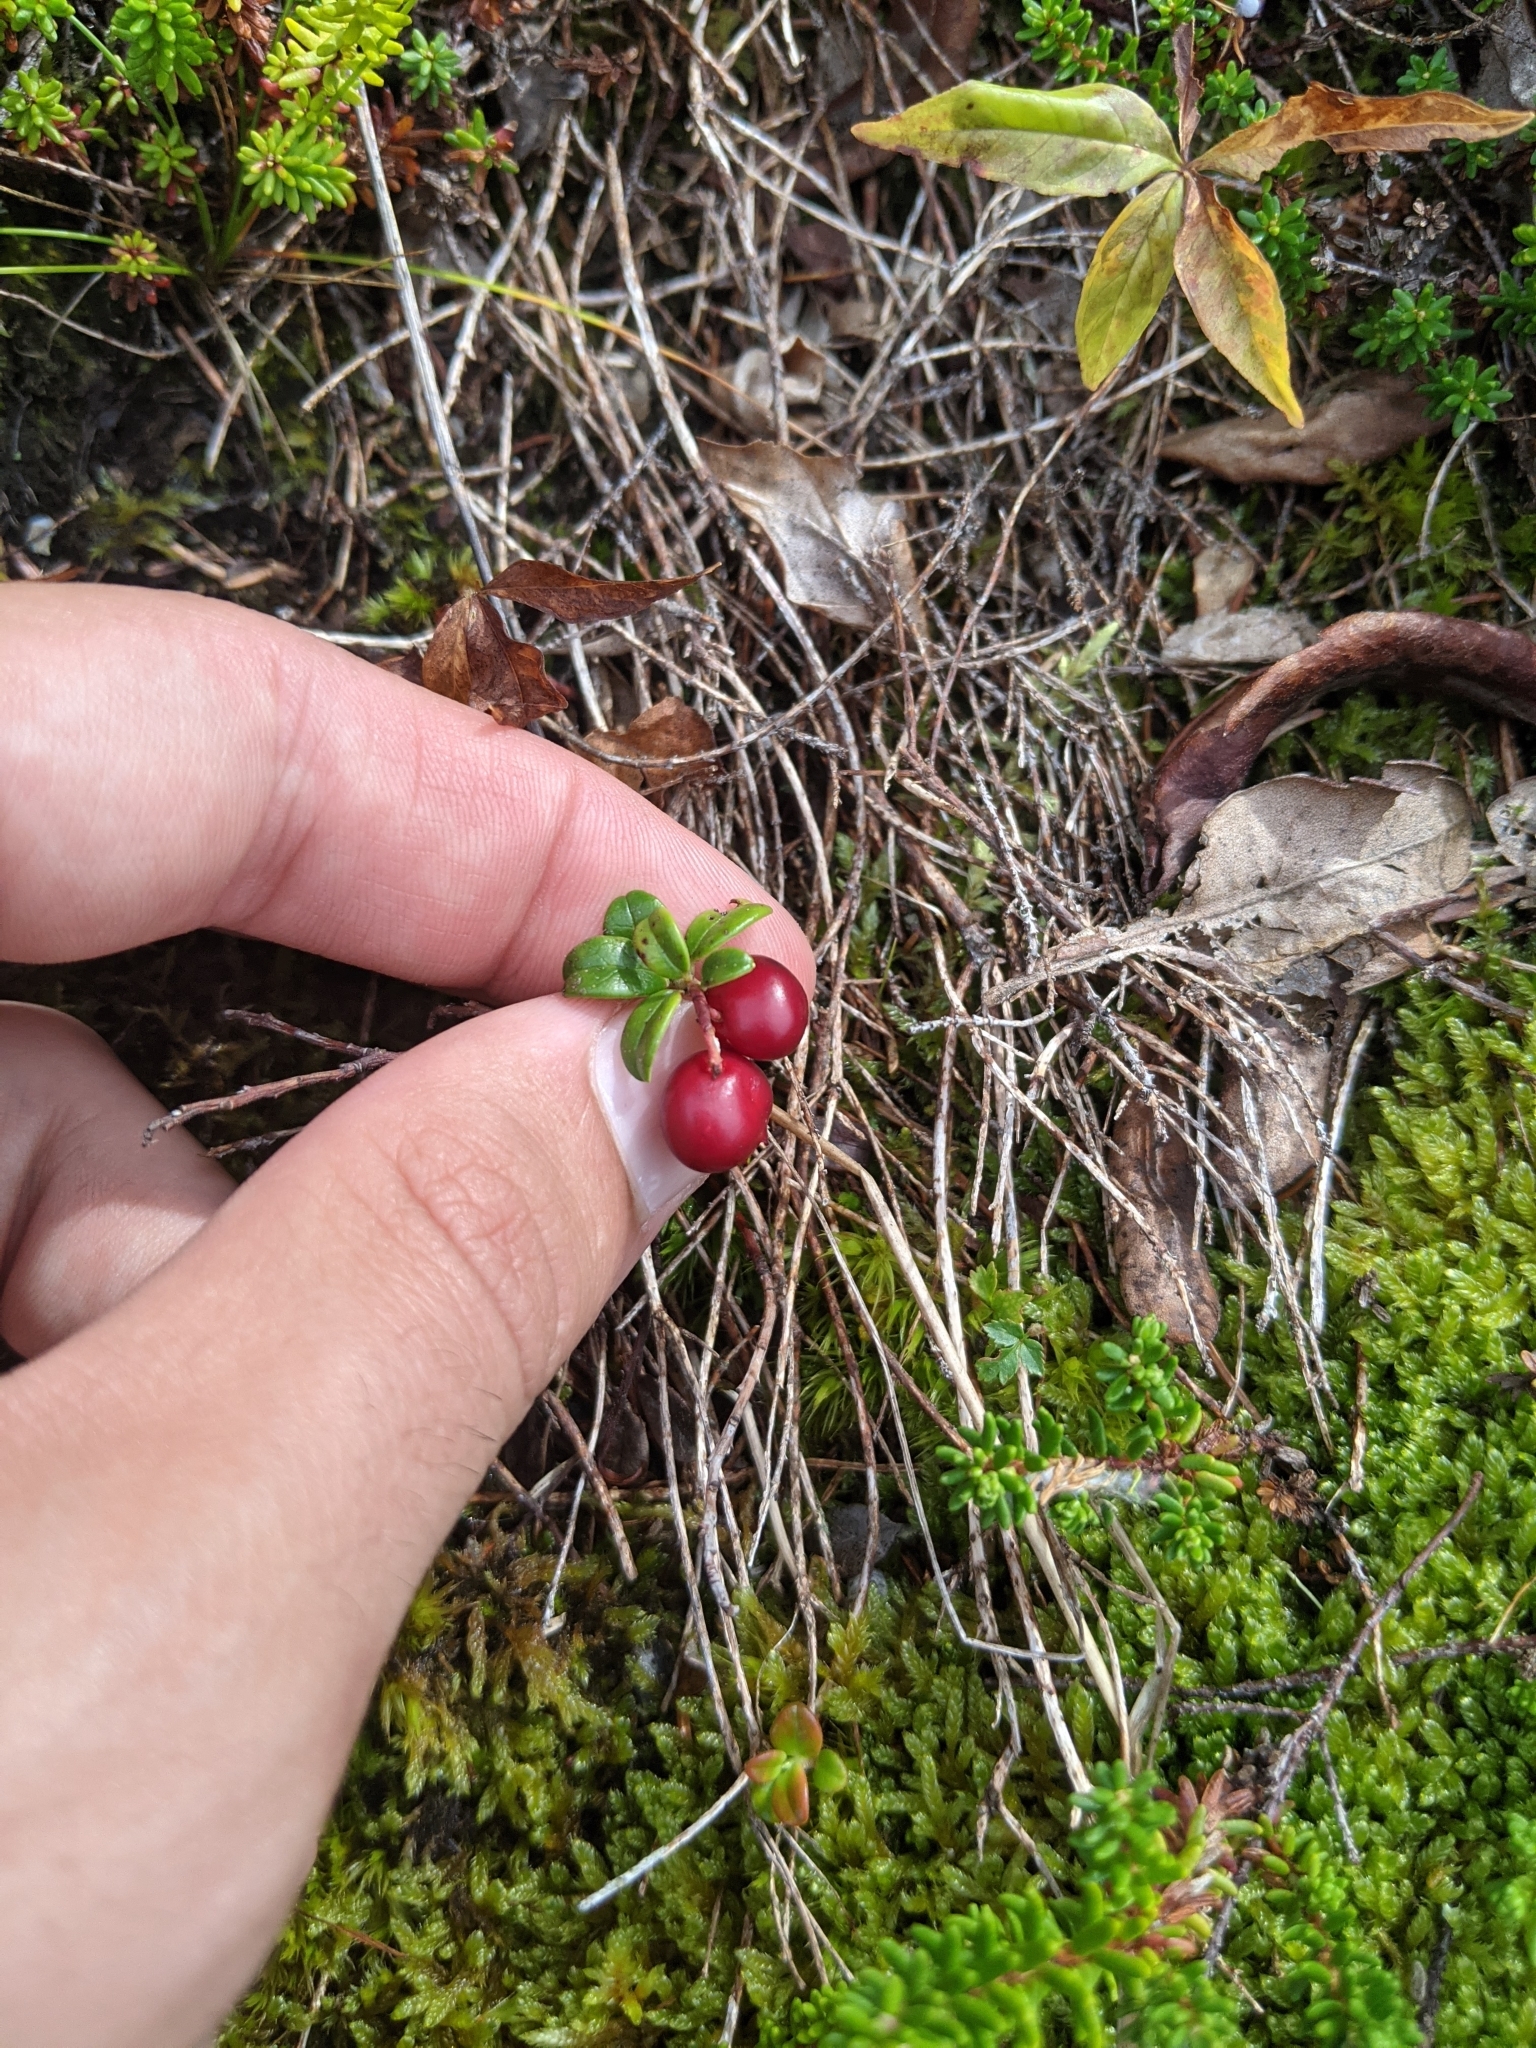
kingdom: Plantae
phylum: Tracheophyta
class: Magnoliopsida
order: Ericales
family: Ericaceae
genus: Vaccinium
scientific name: Vaccinium vitis-idaea
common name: Cowberry
